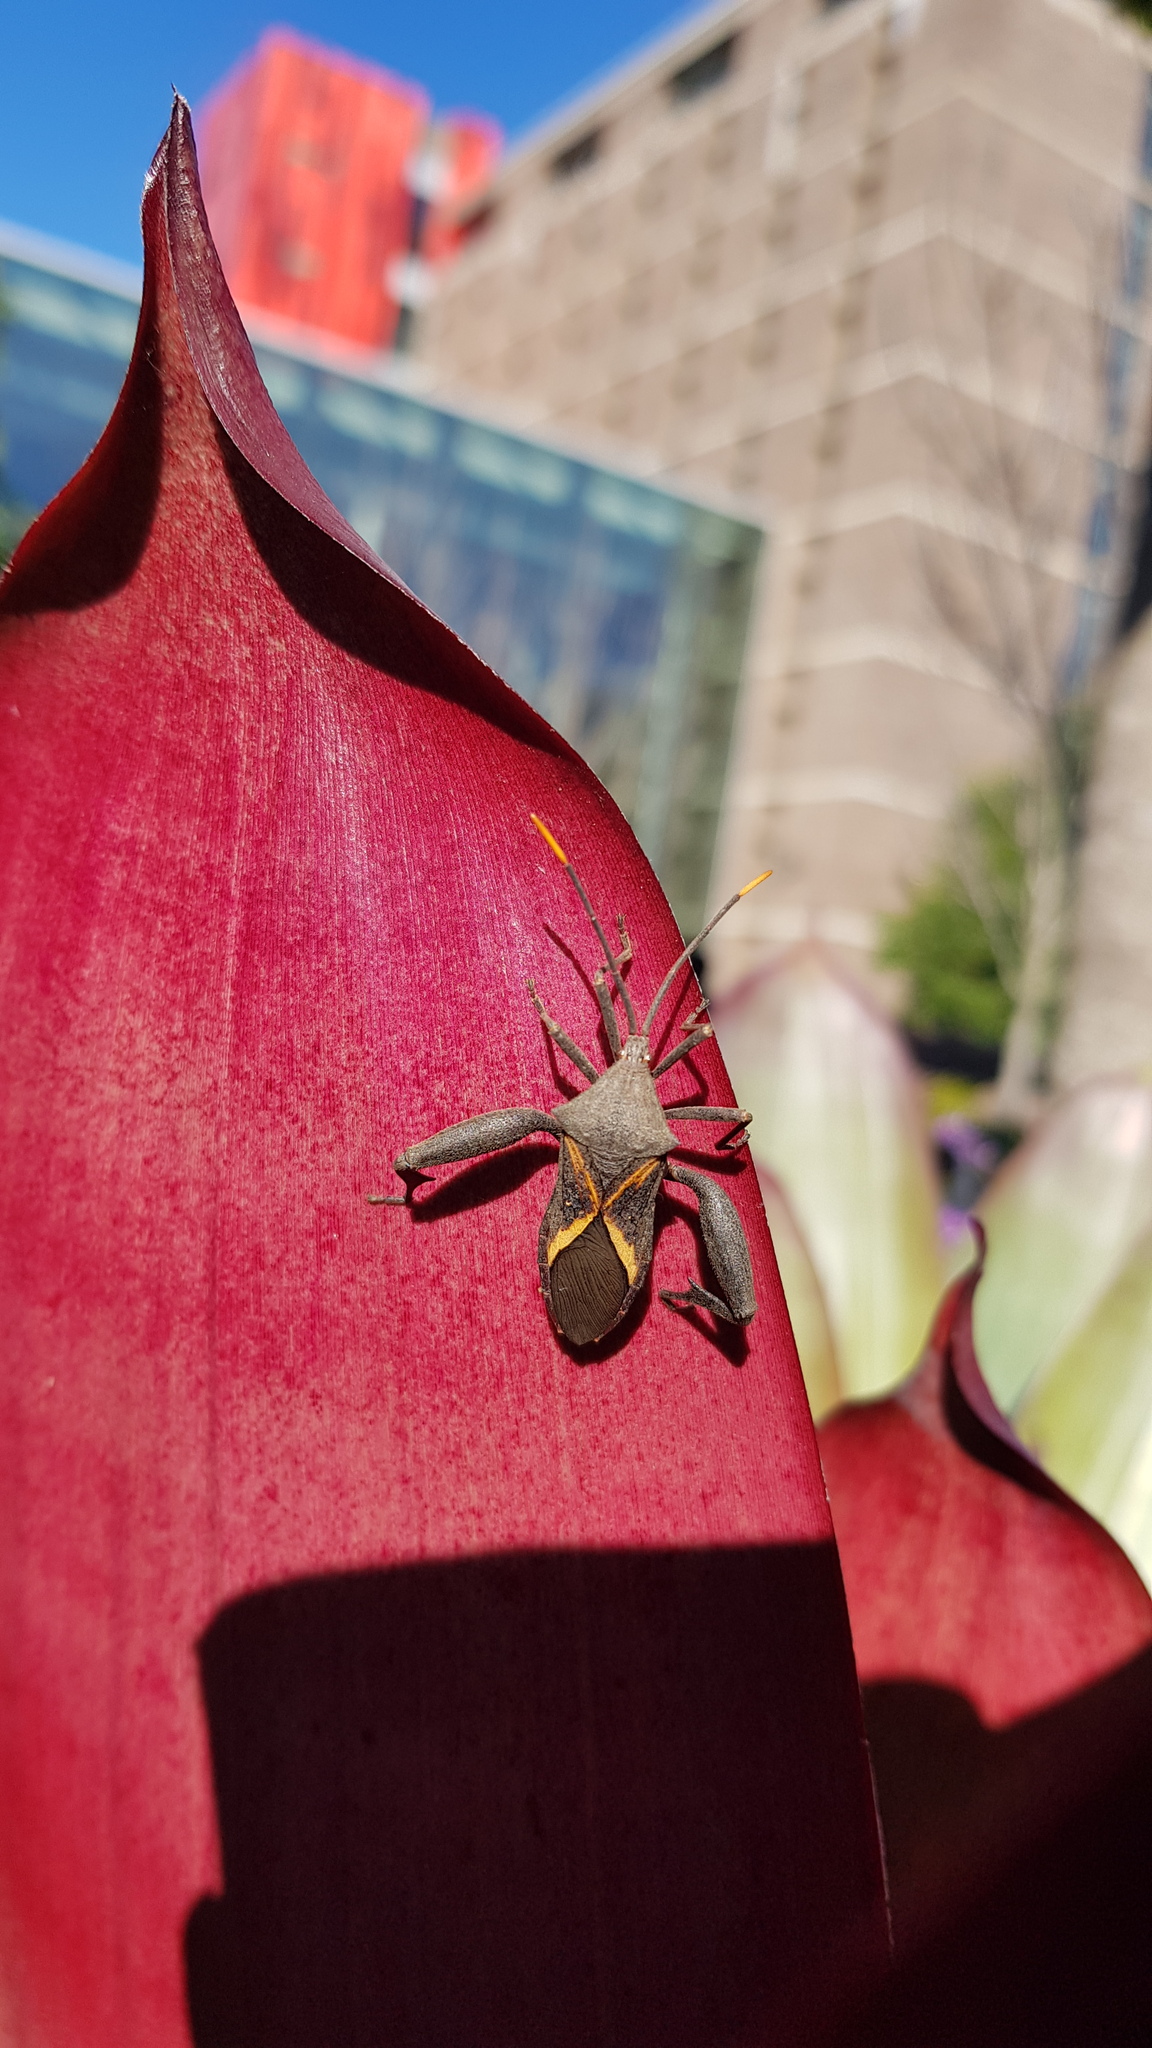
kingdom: Animalia
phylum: Arthropoda
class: Insecta
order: Hemiptera
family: Coreidae
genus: Mictis
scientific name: Mictis profana
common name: Crusader bug
